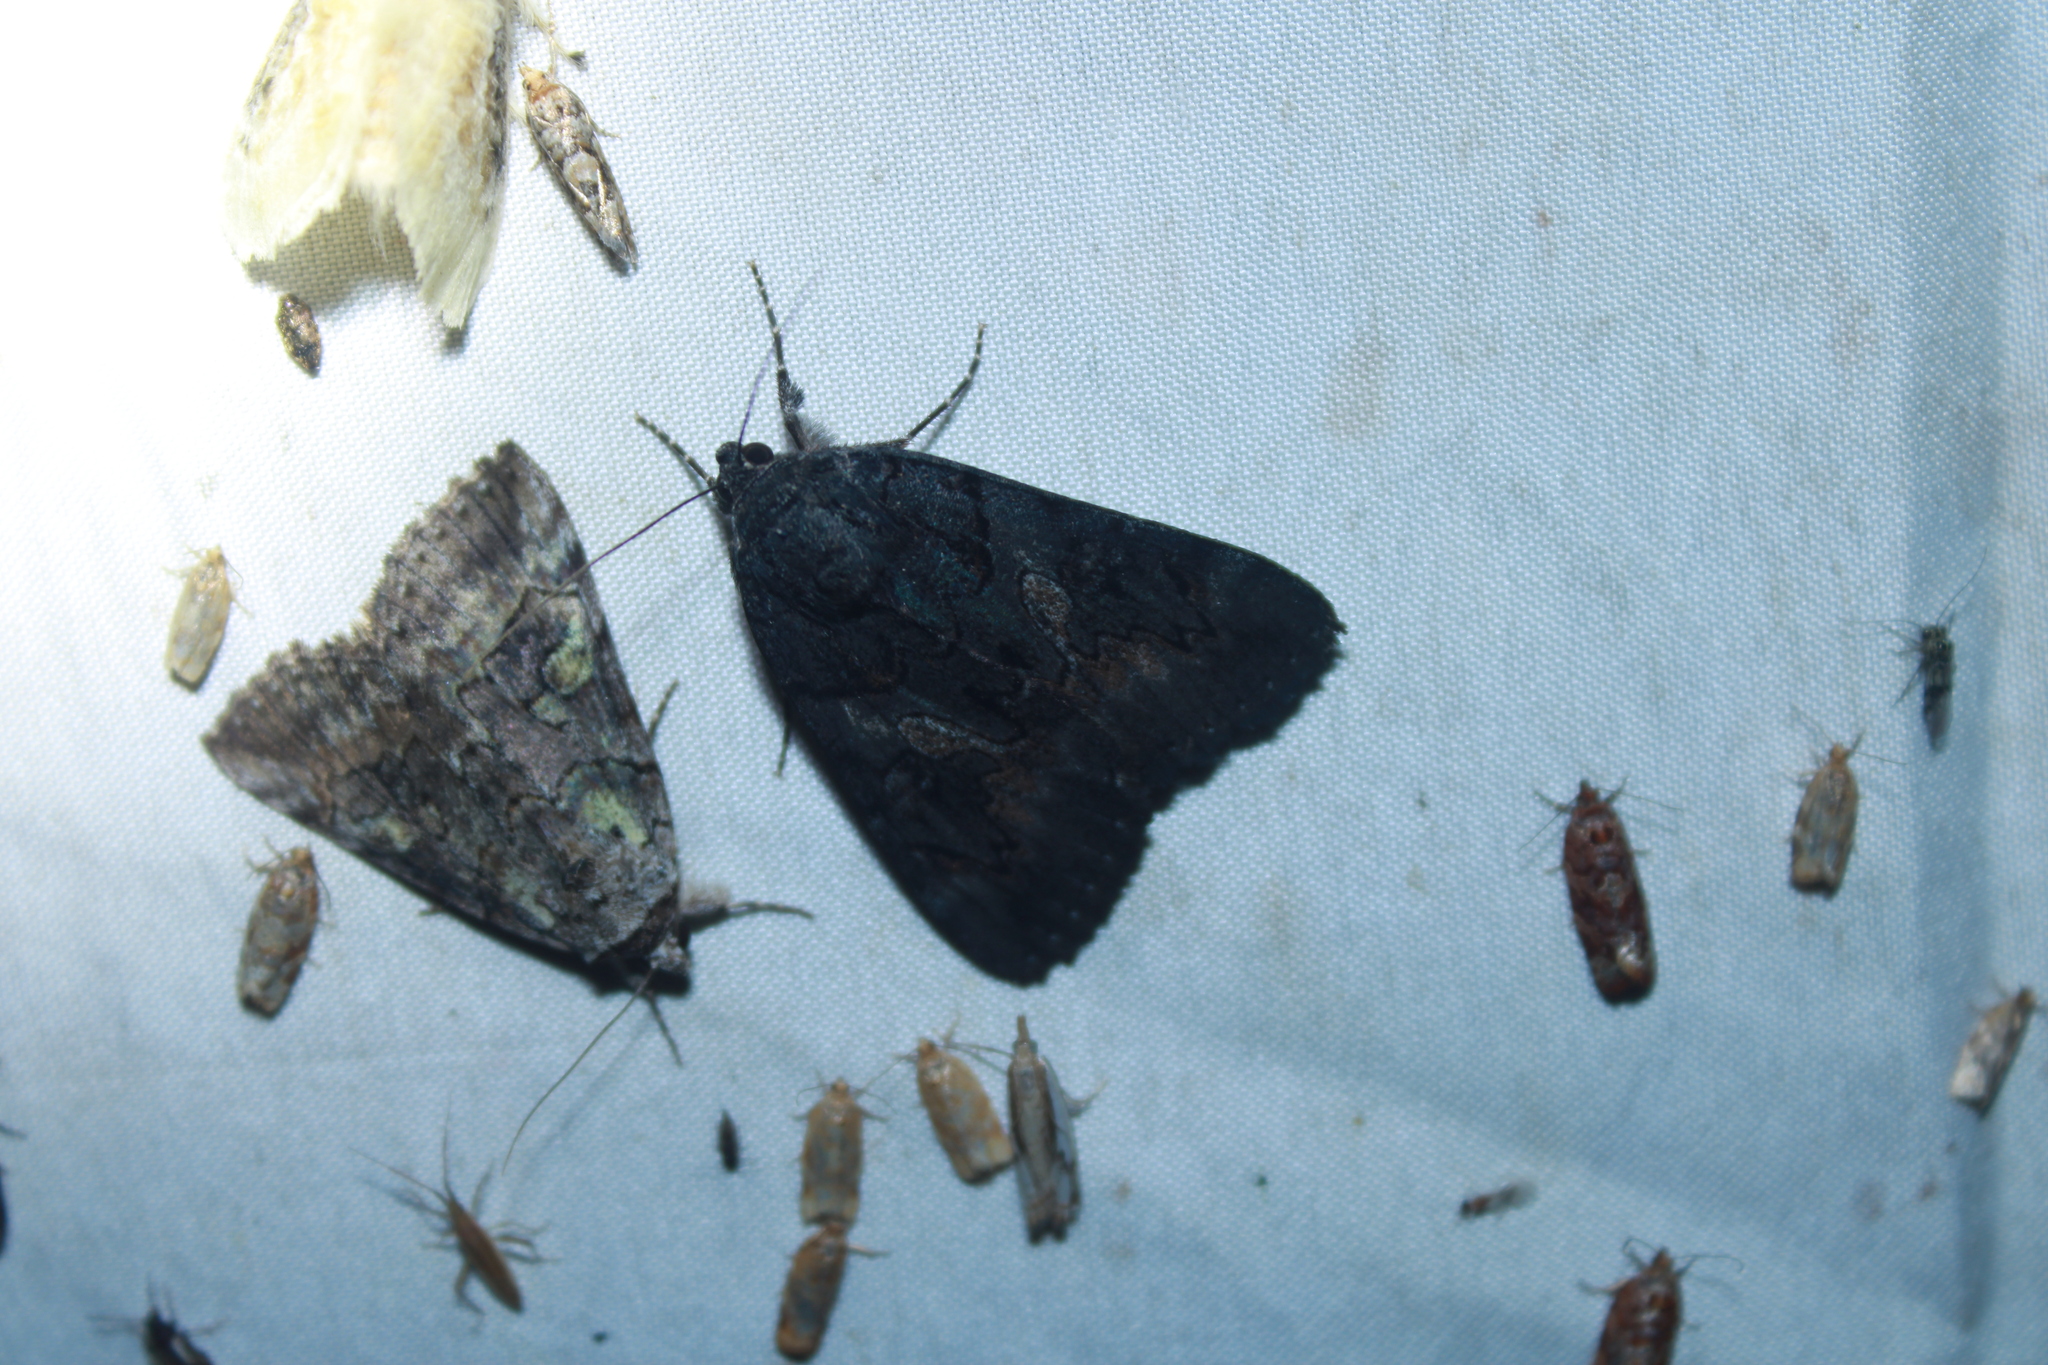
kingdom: Animalia
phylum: Arthropoda
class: Insecta
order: Lepidoptera
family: Erebidae
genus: Catocala
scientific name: Catocala antinympha
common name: Sweetfern underwing
